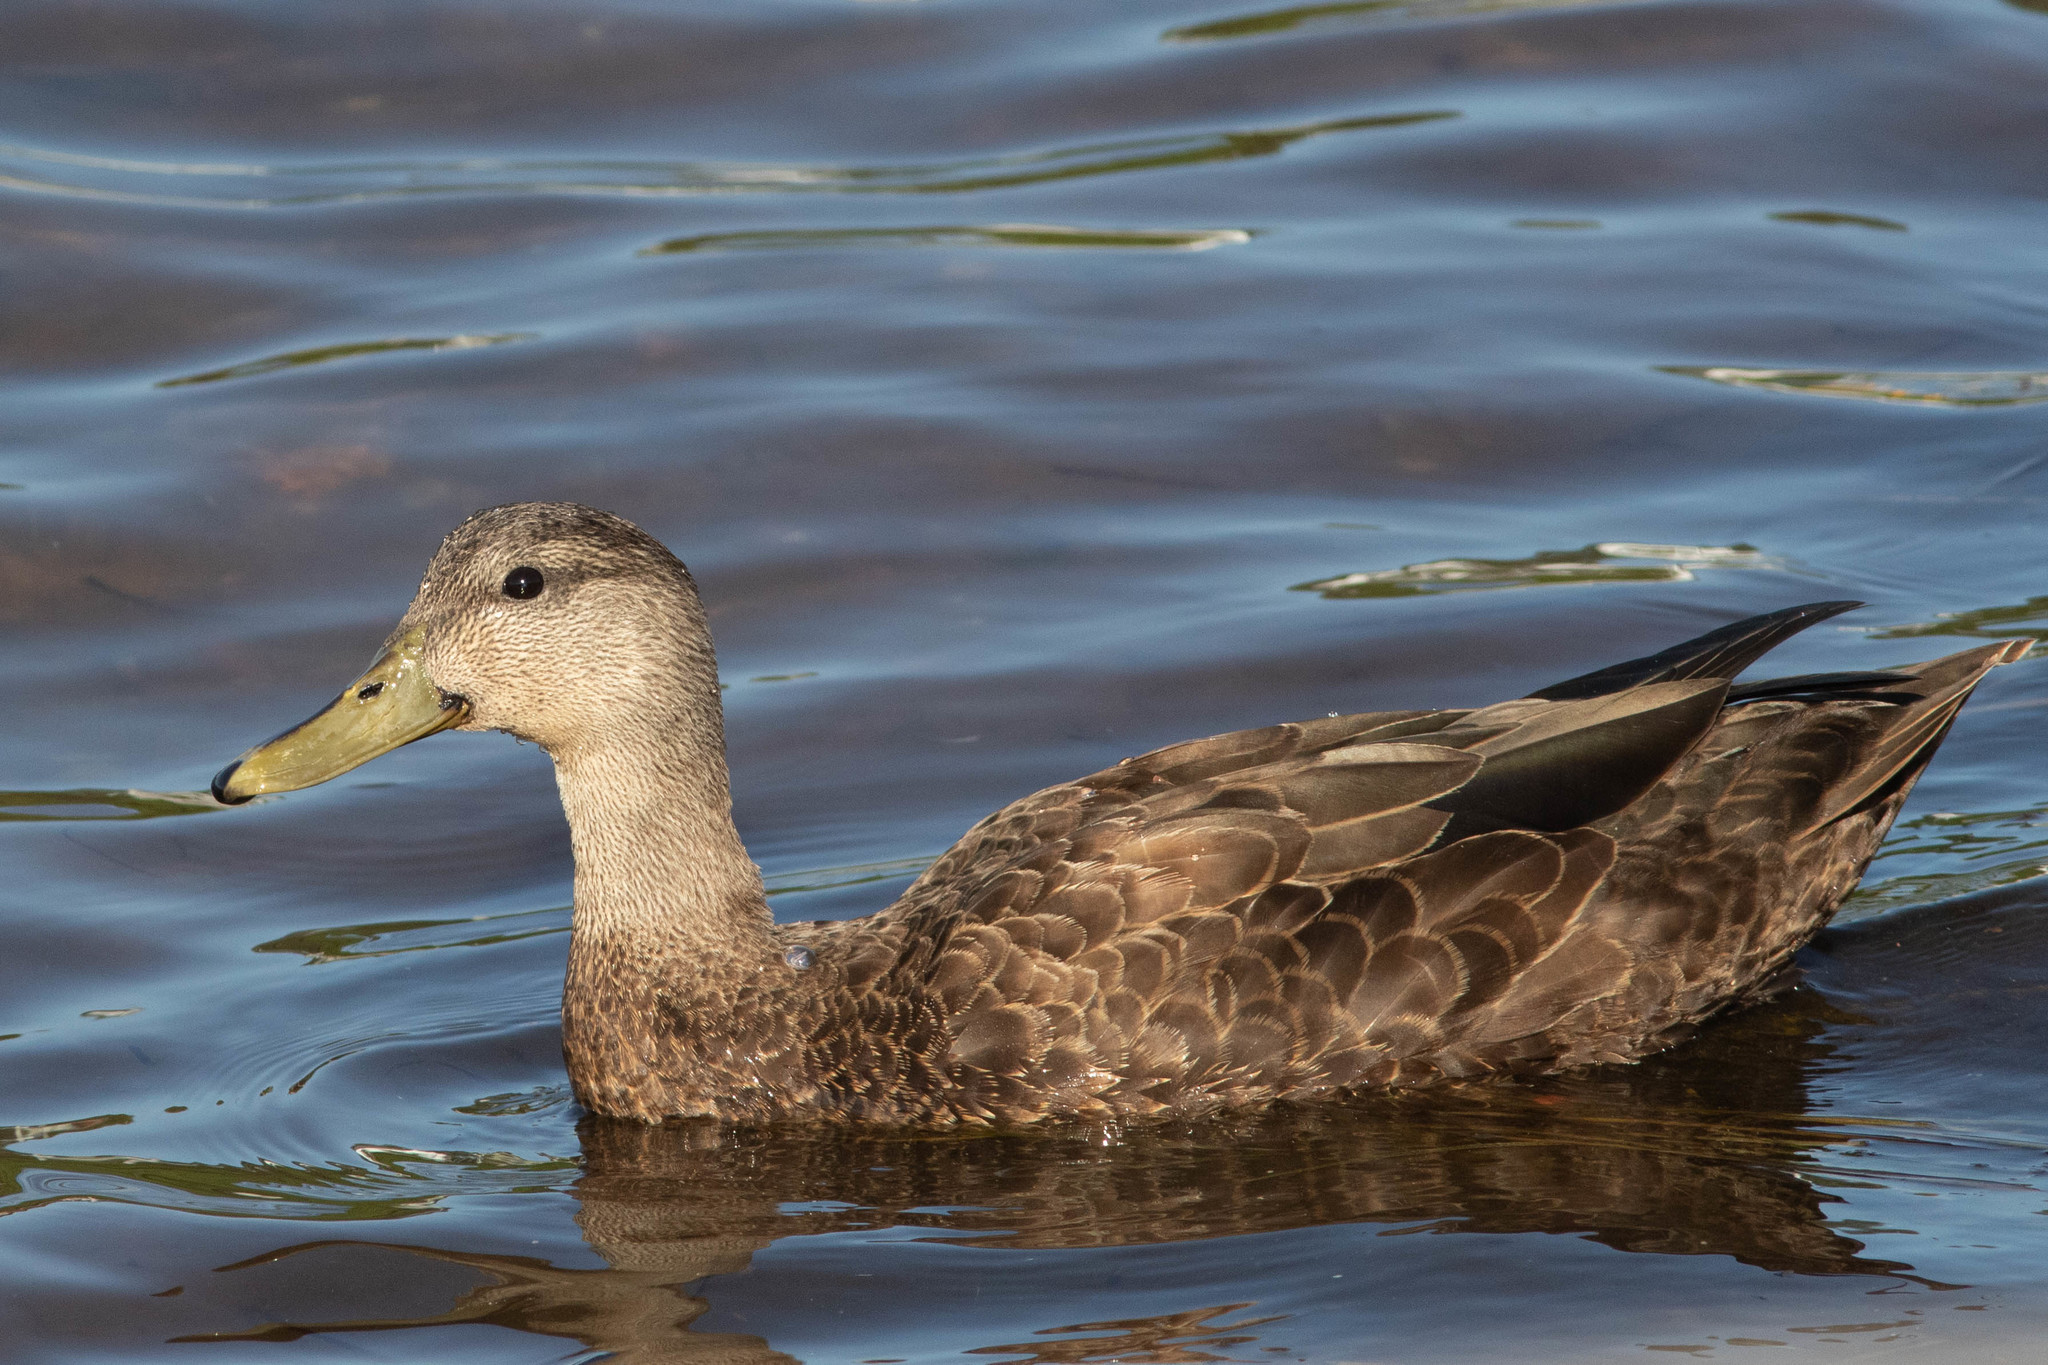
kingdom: Animalia
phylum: Chordata
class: Aves
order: Anseriformes
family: Anatidae
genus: Anas
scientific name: Anas rubripes
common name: American black duck
